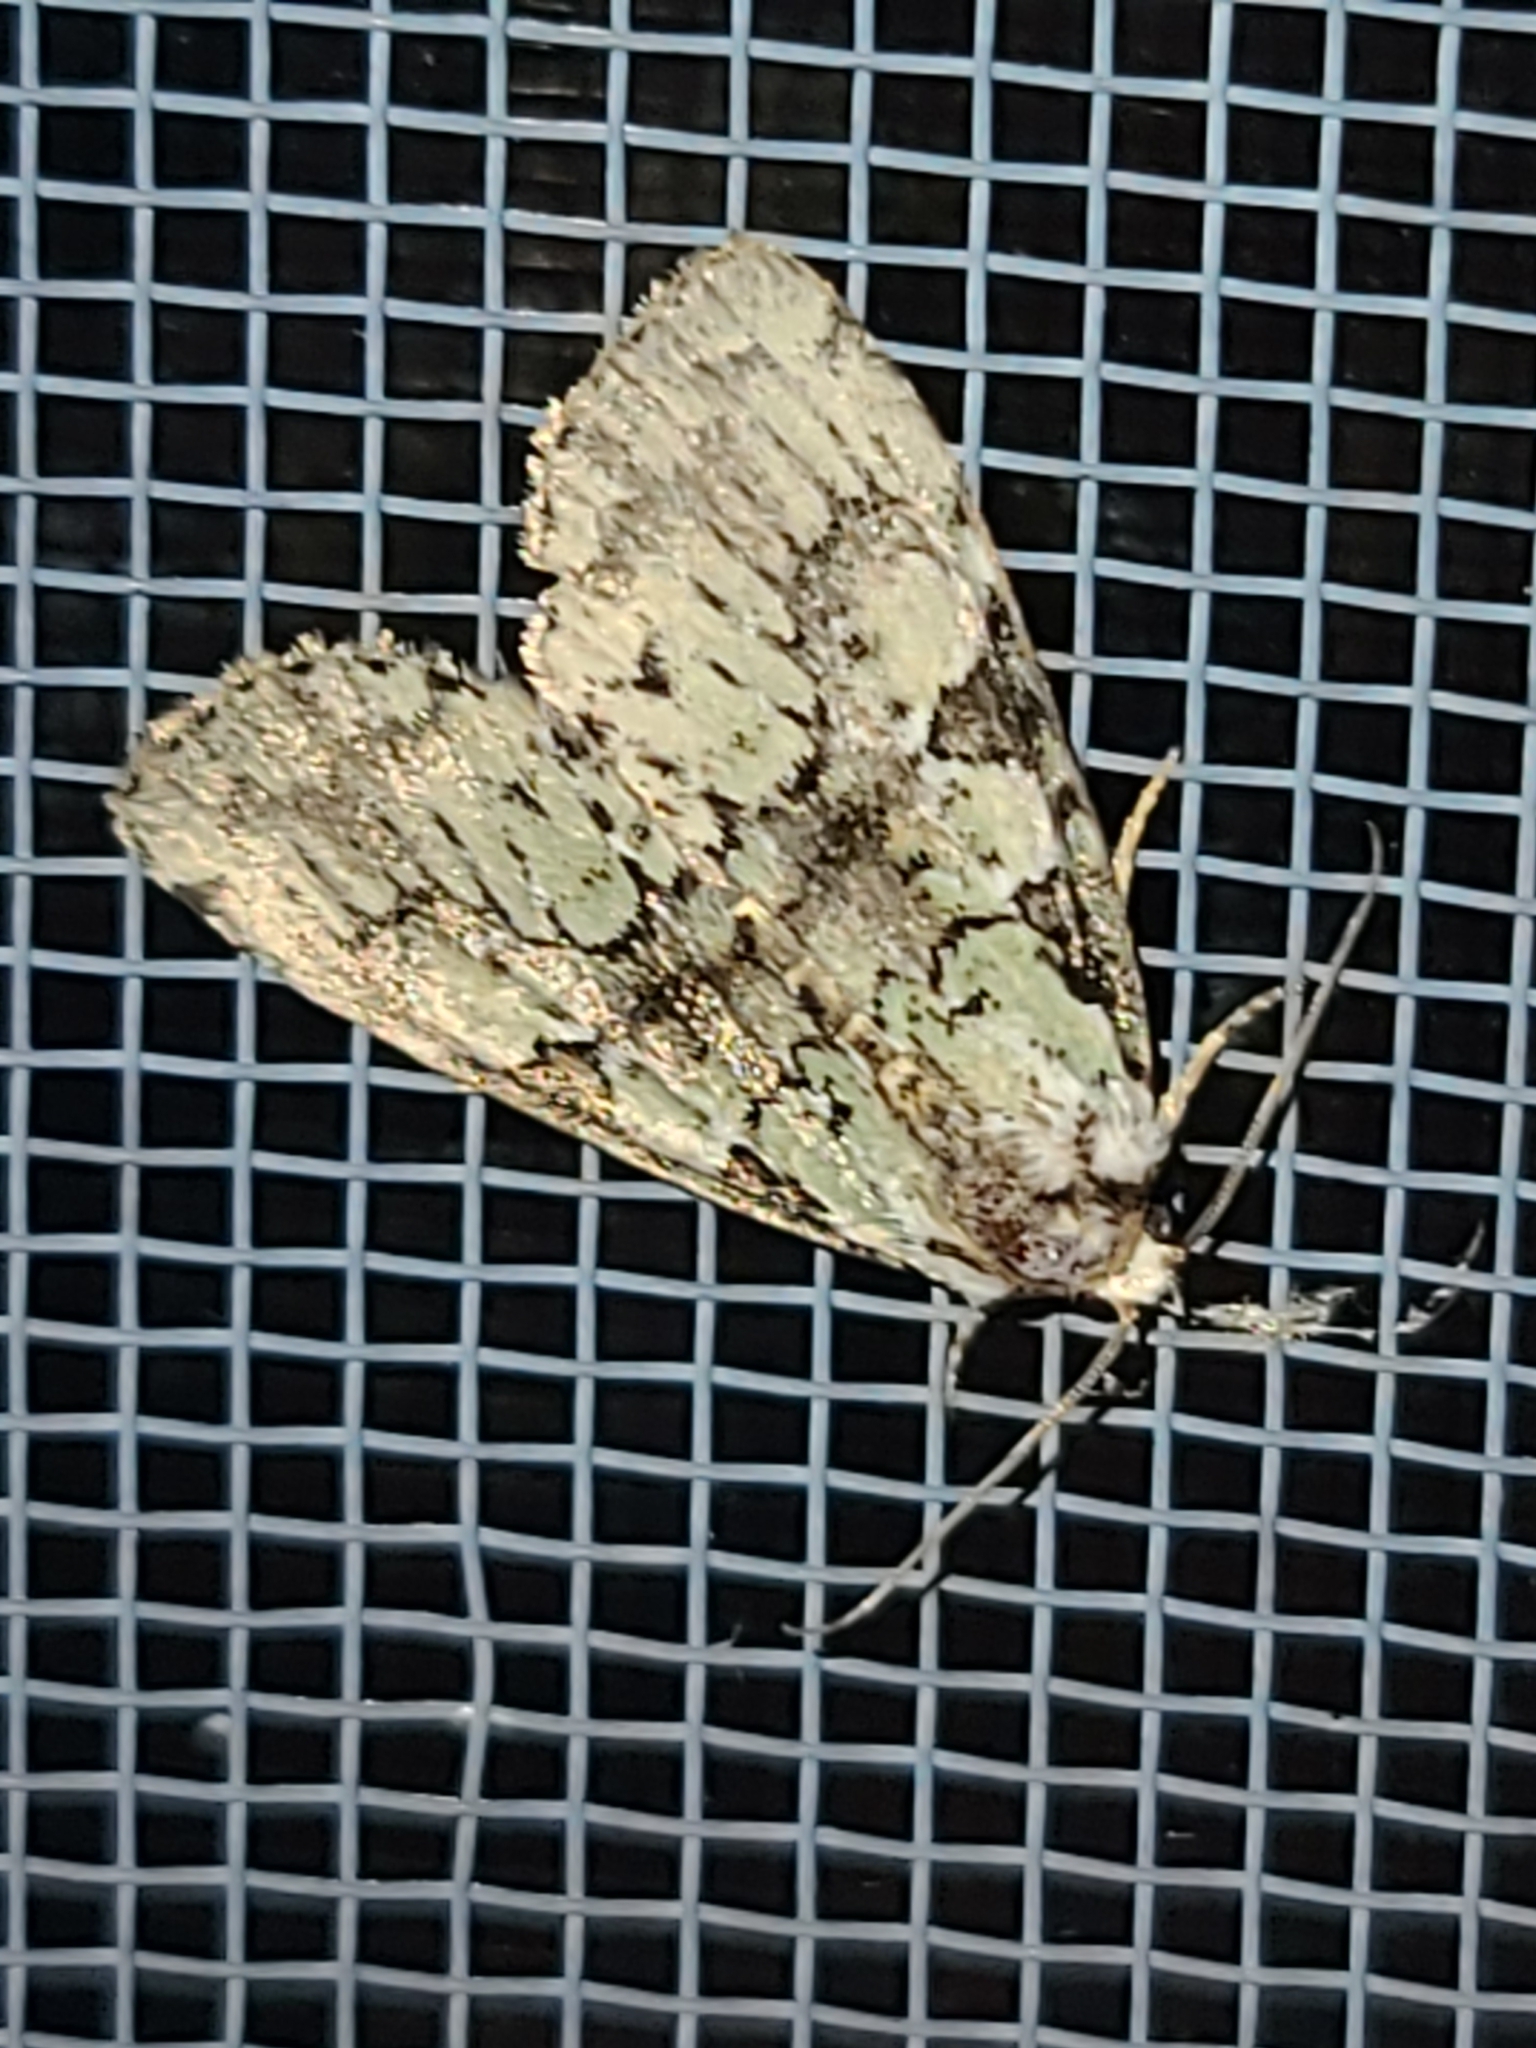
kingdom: Animalia
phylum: Arthropoda
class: Insecta
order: Lepidoptera
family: Noctuidae
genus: Leuconycta
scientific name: Leuconycta lepidula
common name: Marbled-green leuconycta moth
